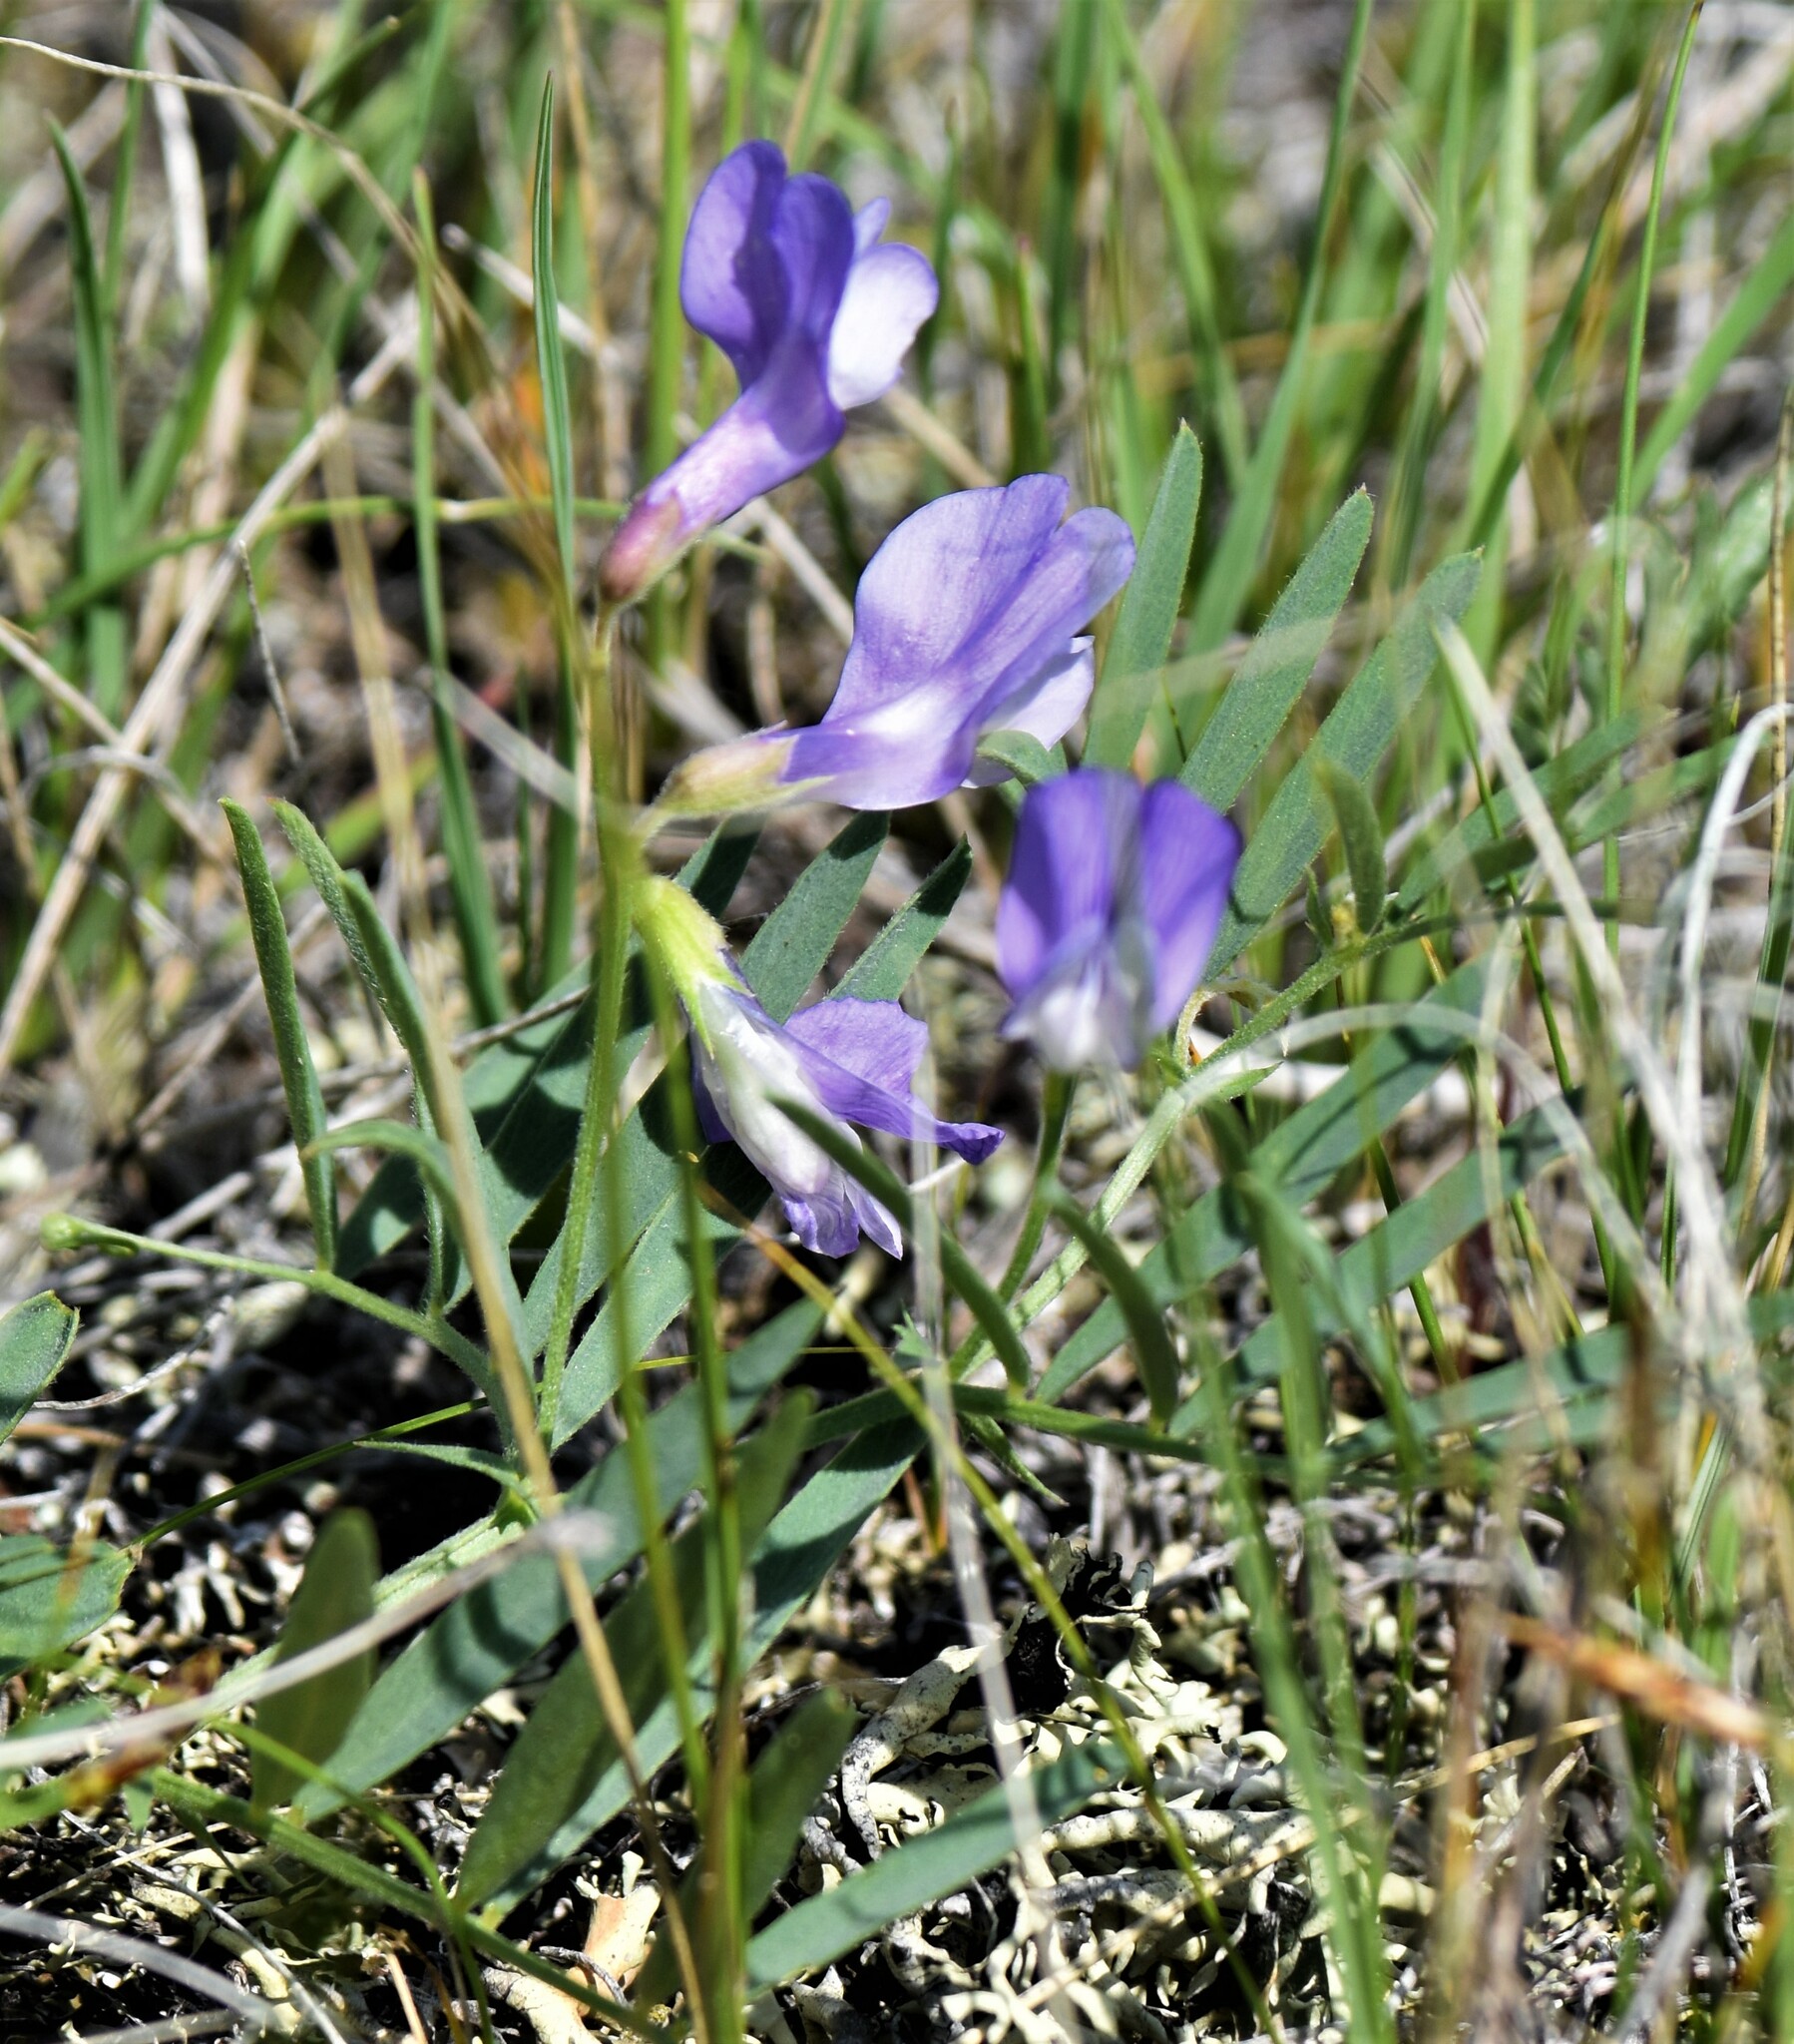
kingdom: Plantae
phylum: Tracheophyta
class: Magnoliopsida
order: Fabales
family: Fabaceae
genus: Vicia
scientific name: Vicia americana
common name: American vetch
